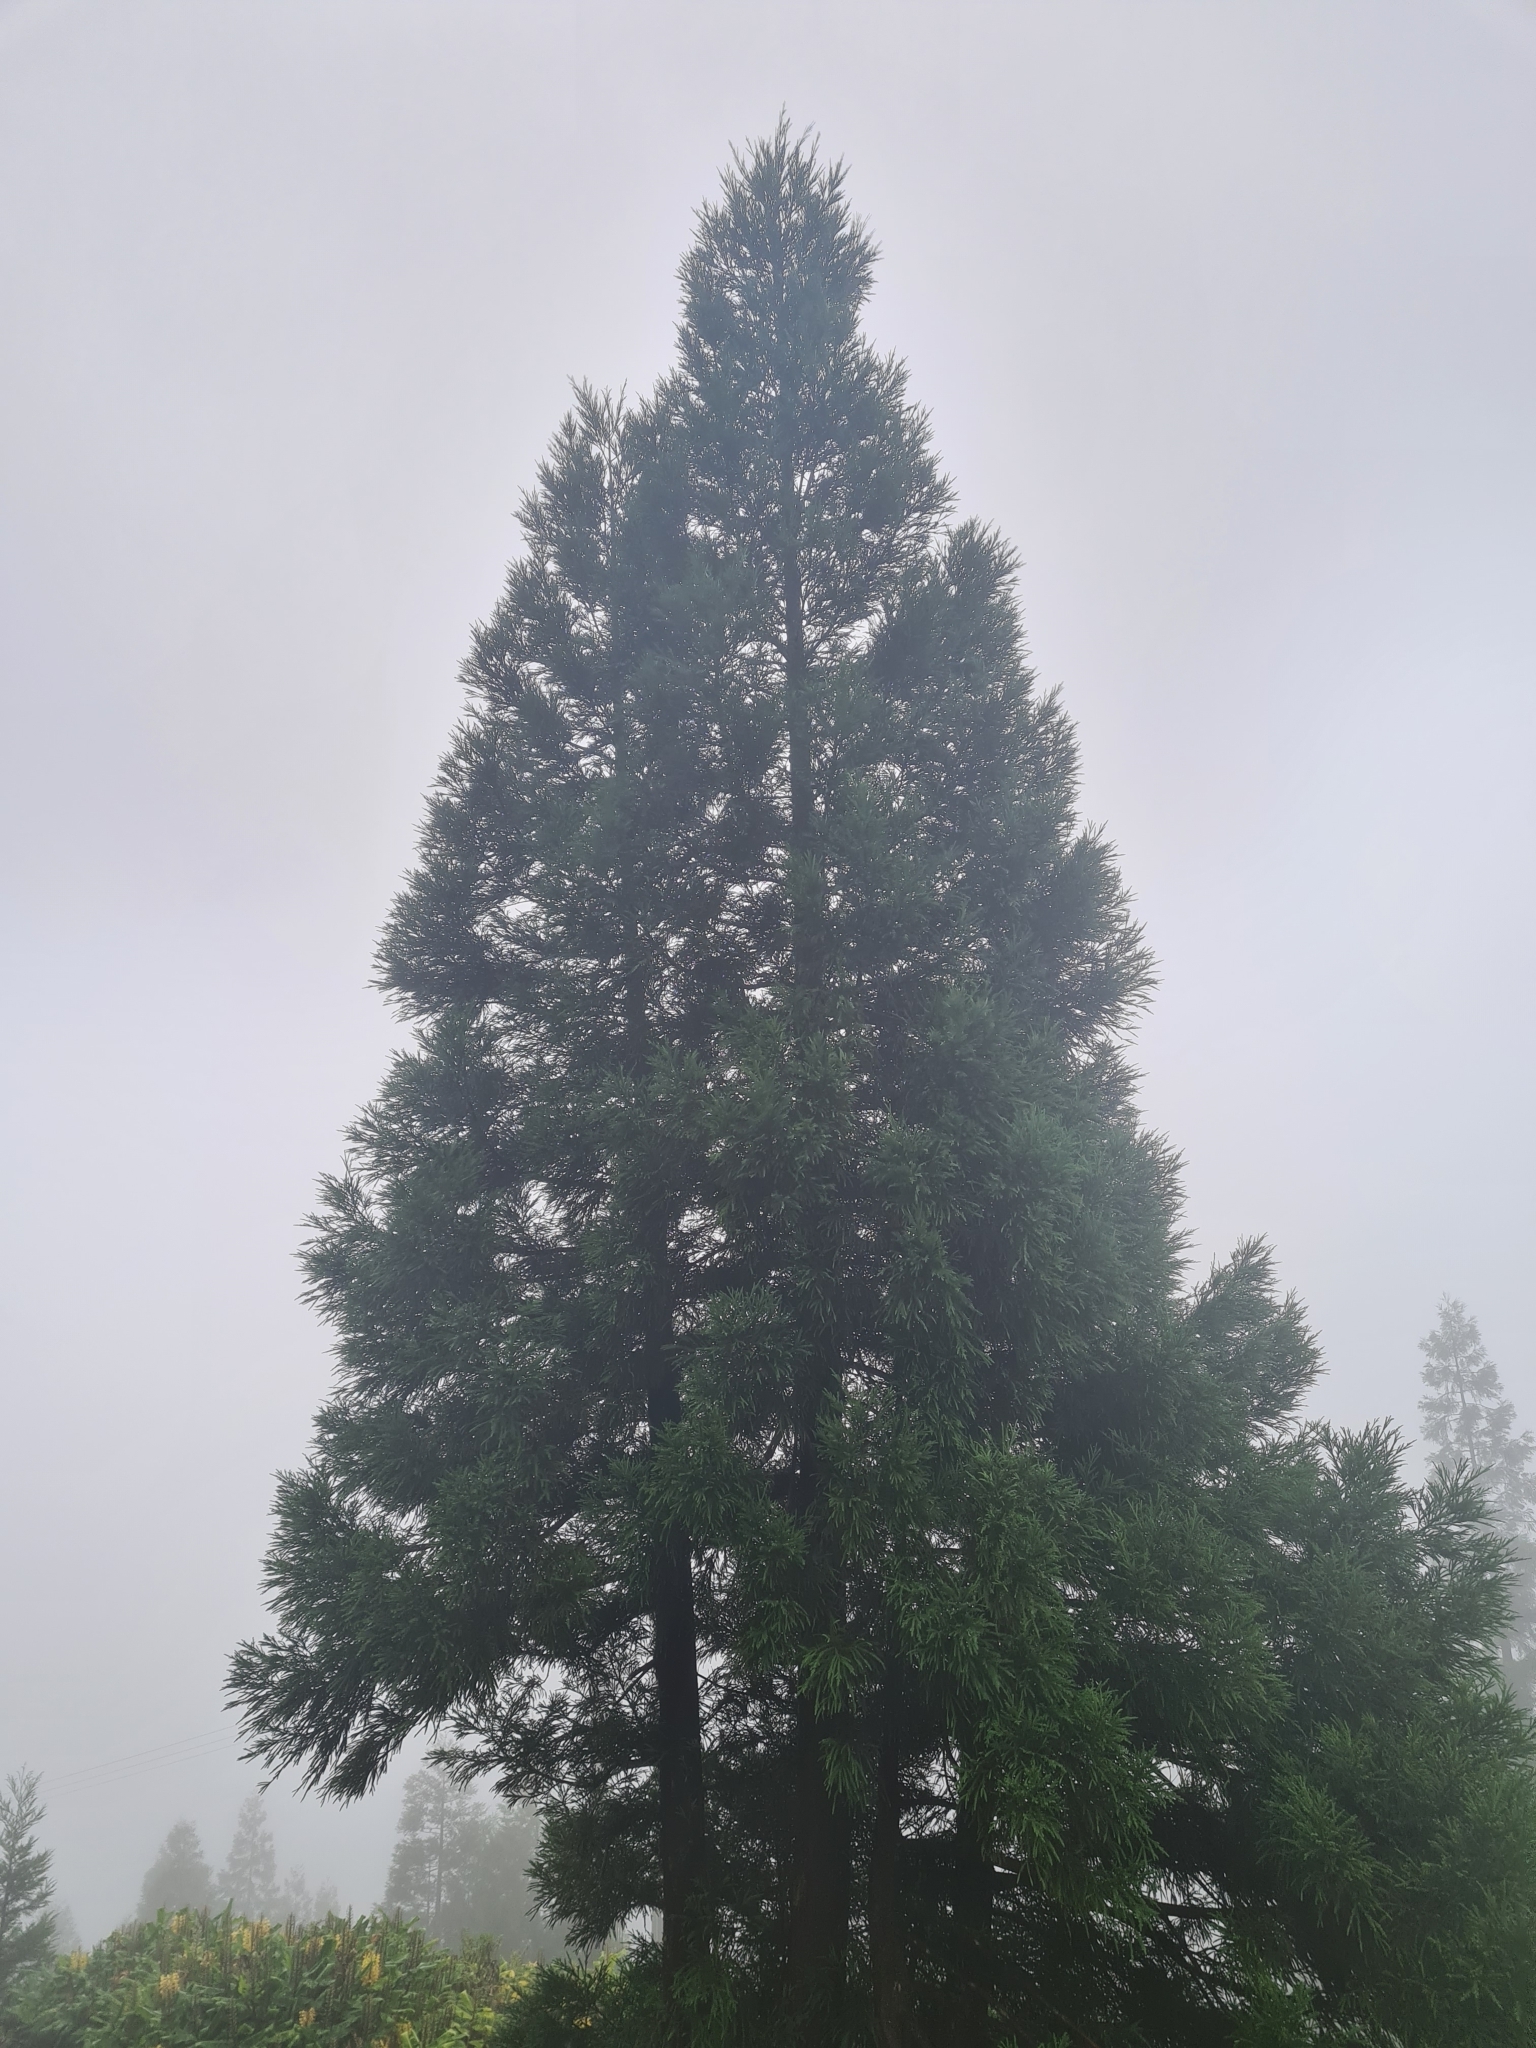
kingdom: Plantae
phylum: Tracheophyta
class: Pinopsida
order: Pinales
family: Cupressaceae
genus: Cryptomeria
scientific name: Cryptomeria japonica
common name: Japanese cedar
